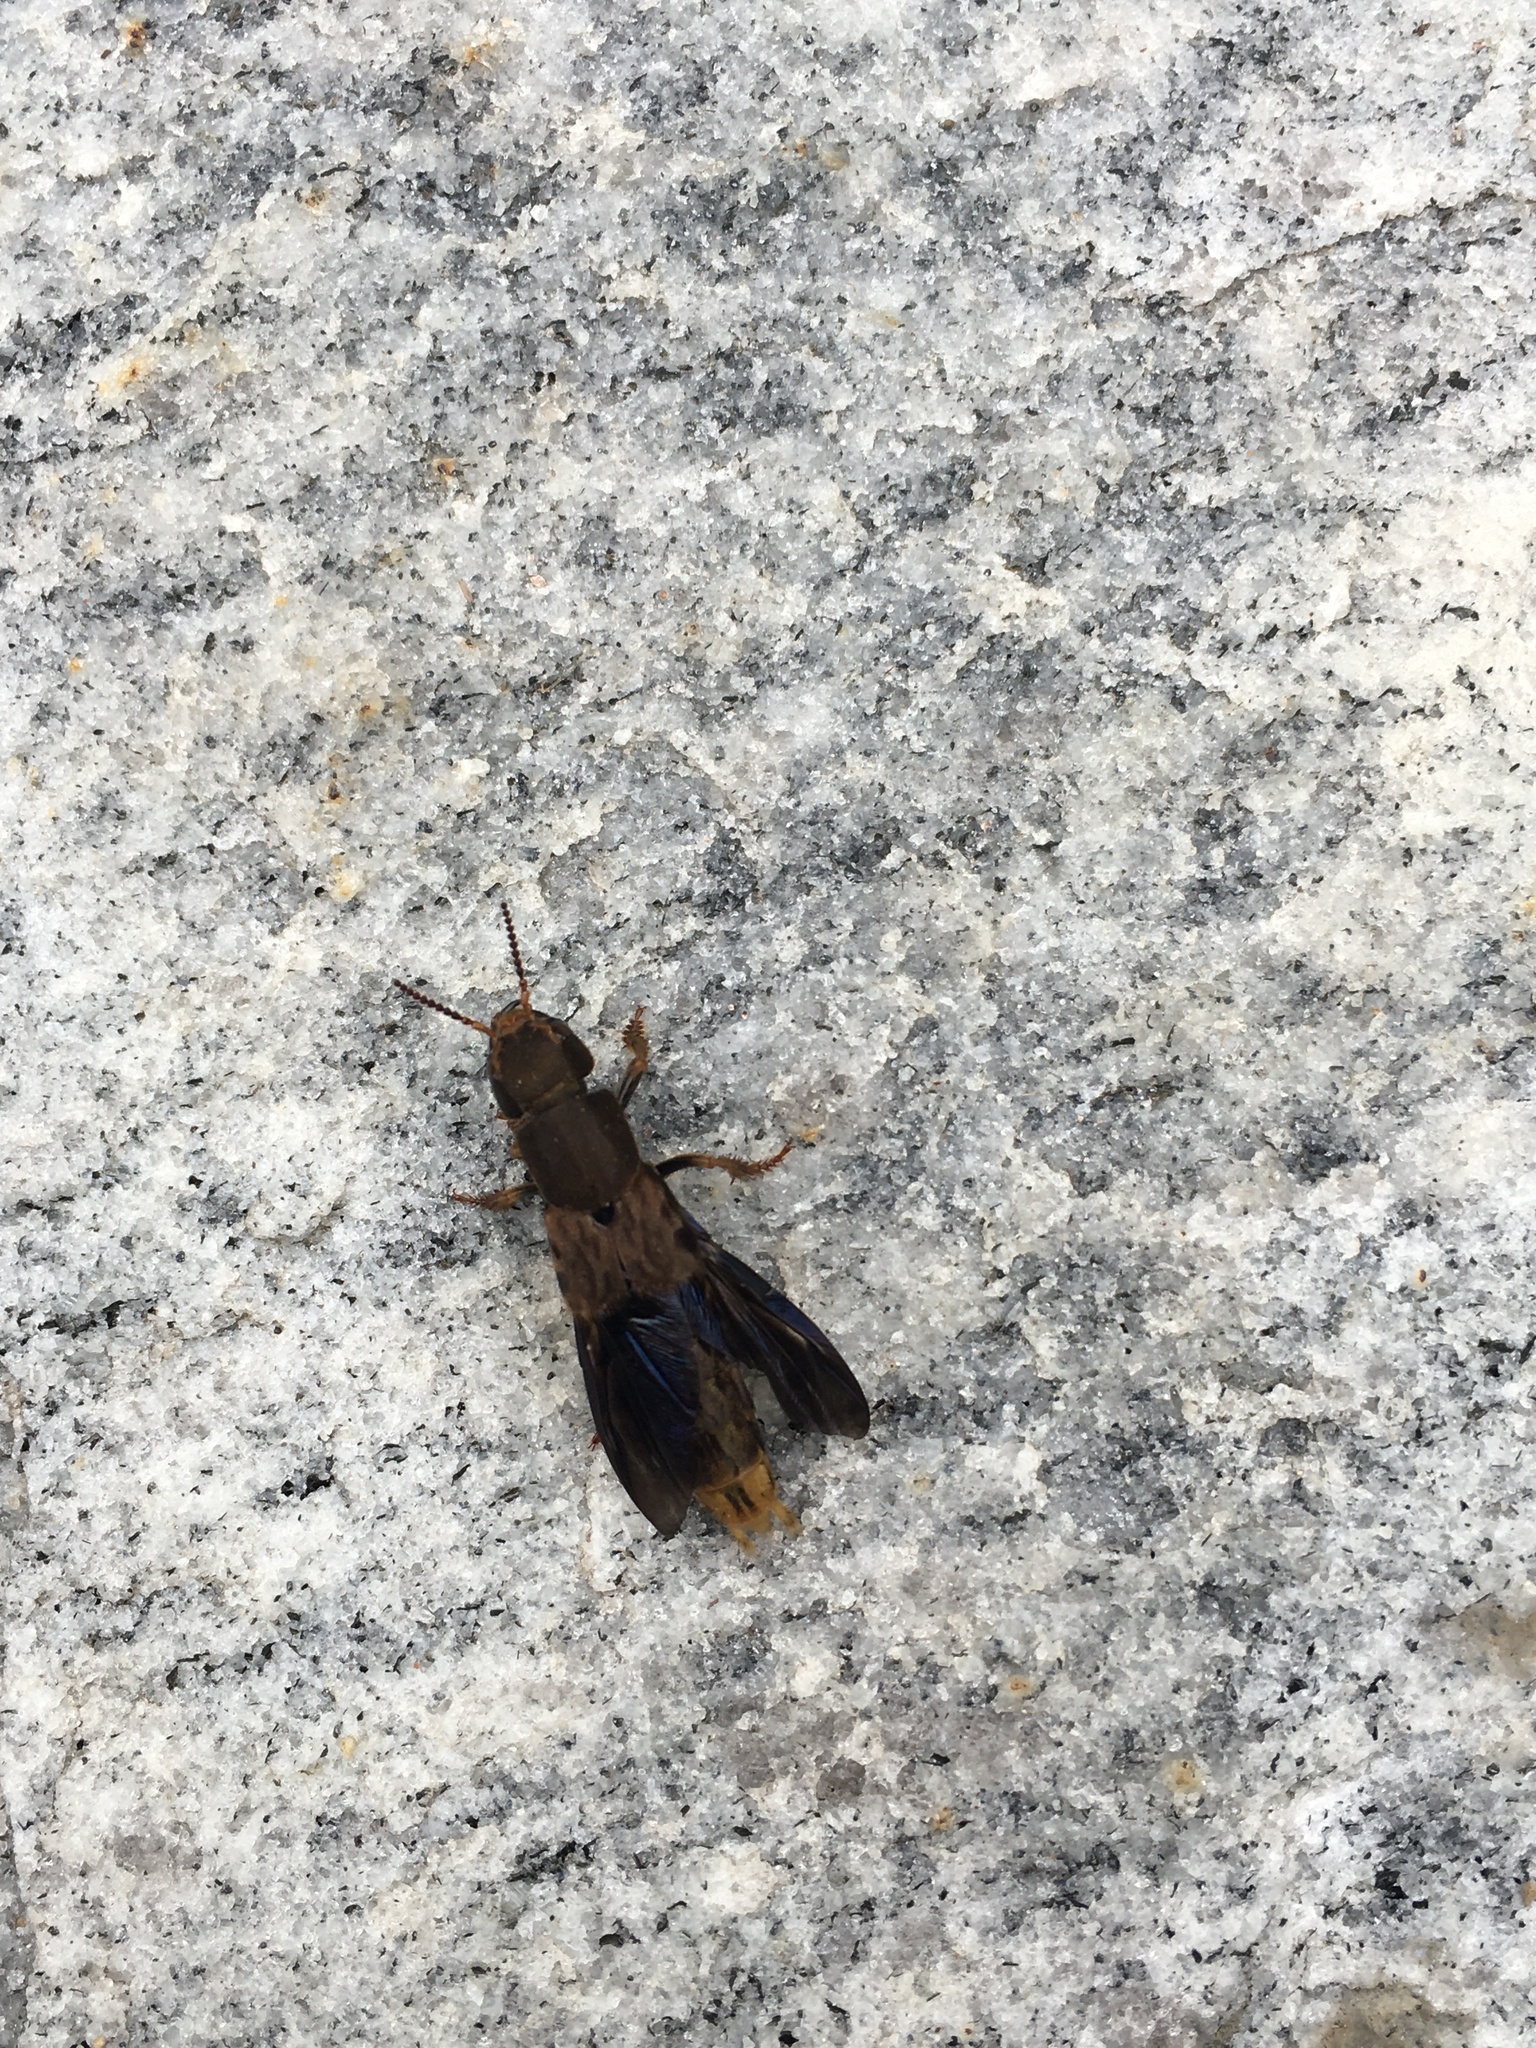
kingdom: Animalia
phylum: Arthropoda
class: Insecta
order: Coleoptera
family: Staphylinidae
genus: Platydracus
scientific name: Platydracus maculosus
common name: Brown rove beetle
